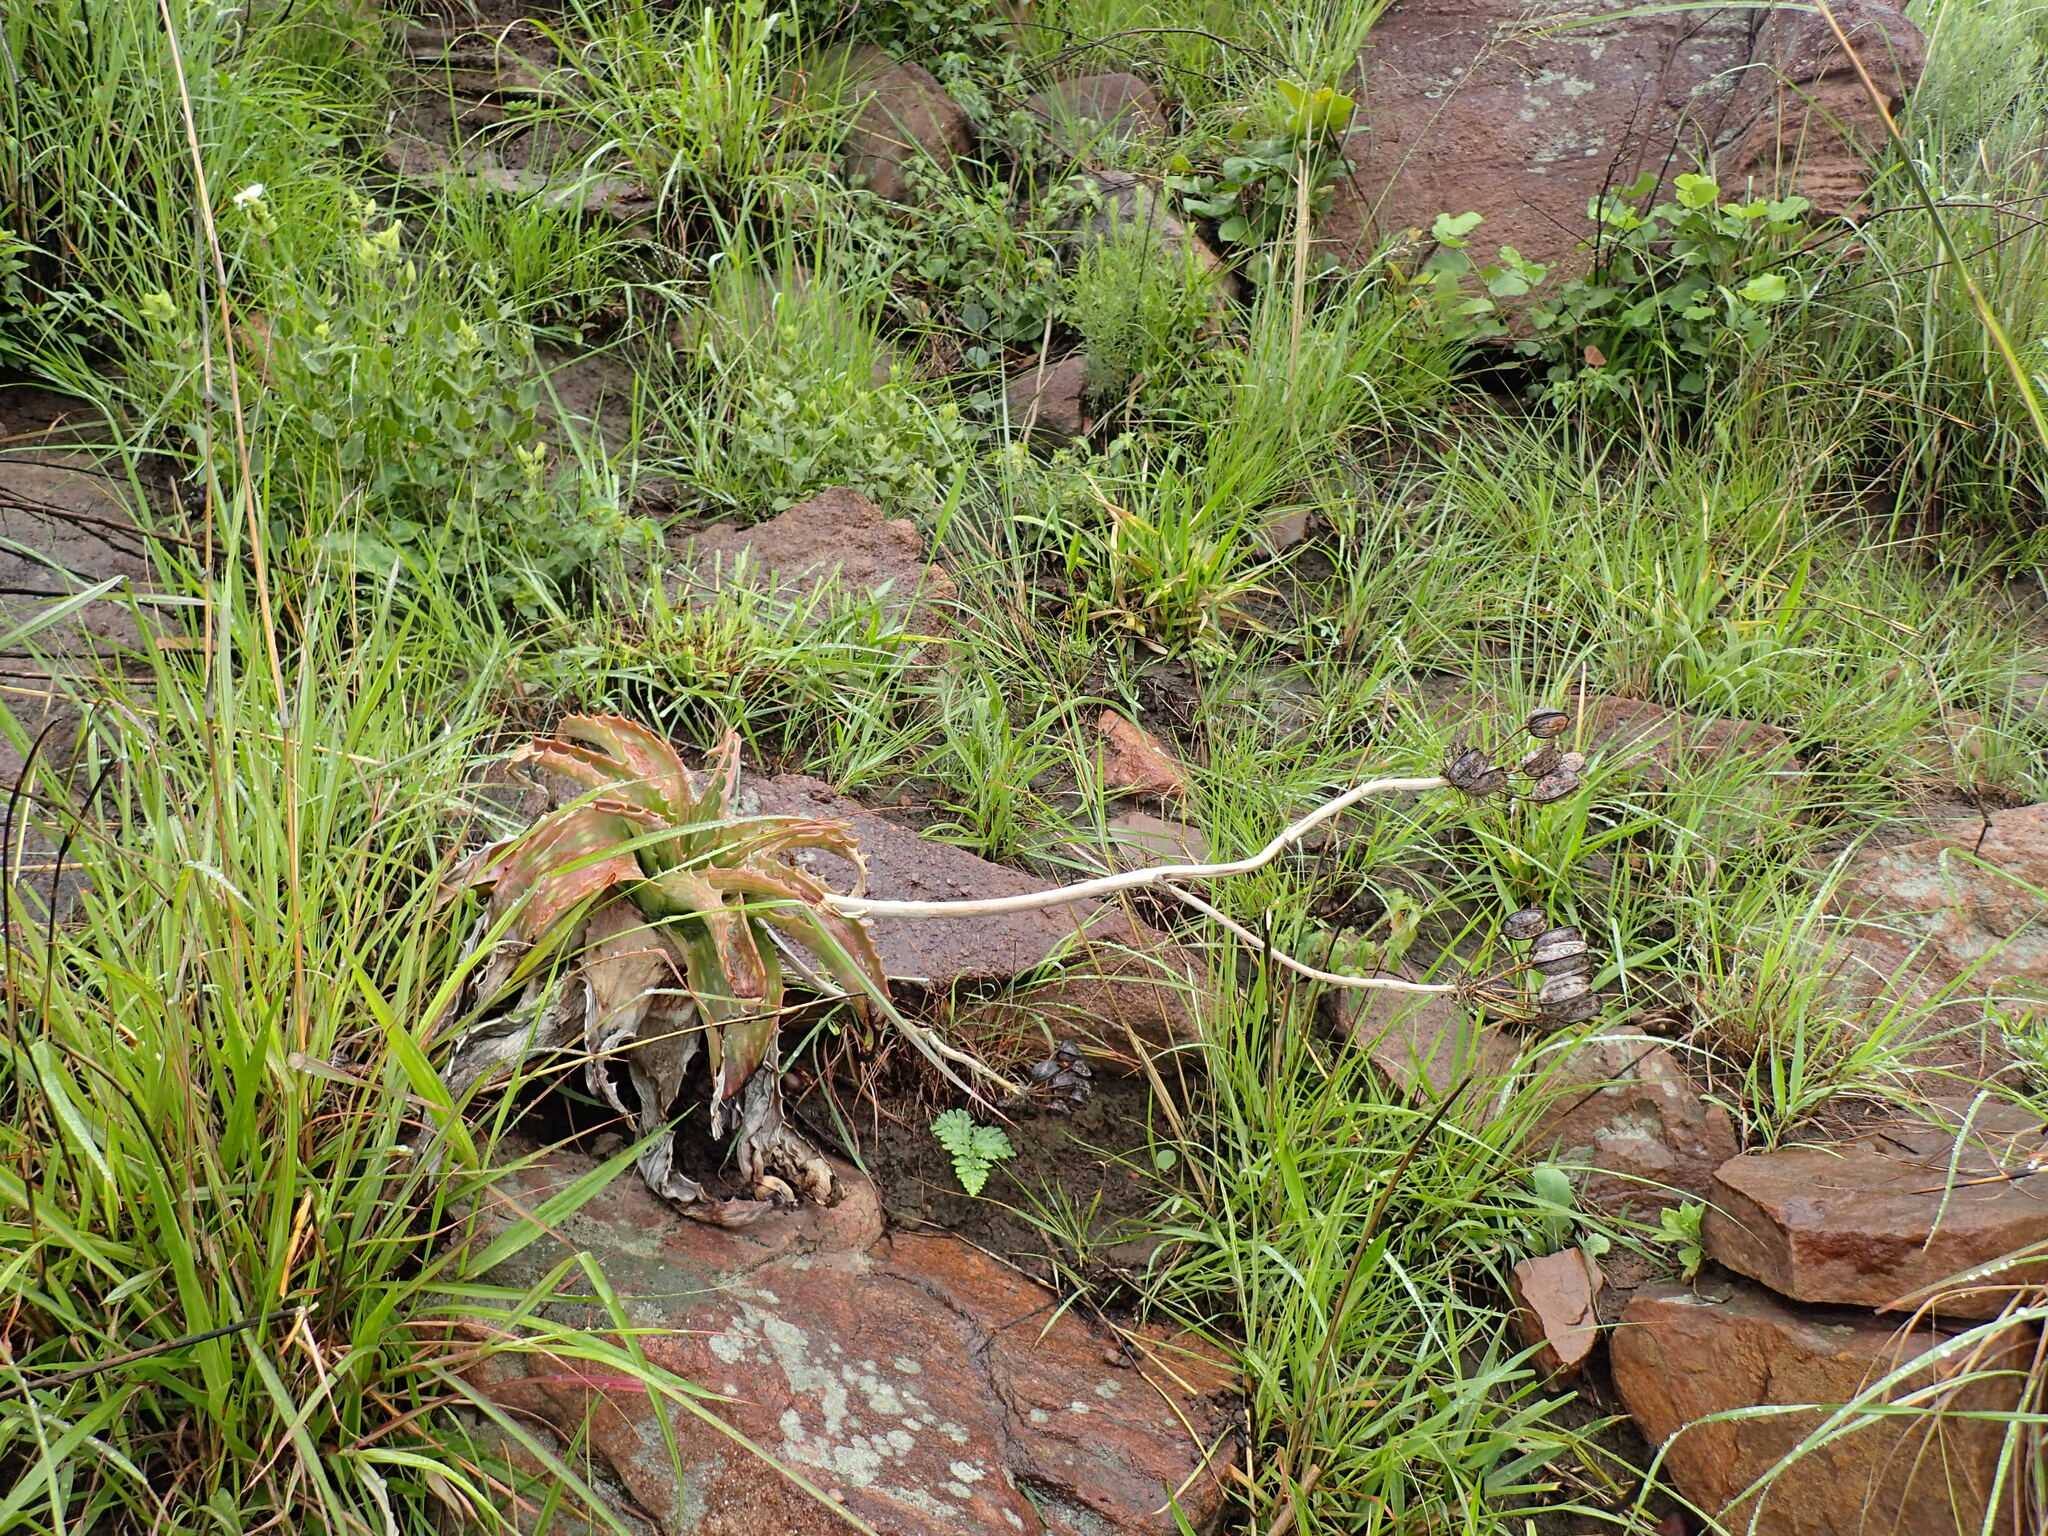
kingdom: Plantae
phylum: Tracheophyta
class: Liliopsida
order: Asparagales
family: Asphodelaceae
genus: Aloe
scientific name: Aloe maculata
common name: Broadleaf aloe
